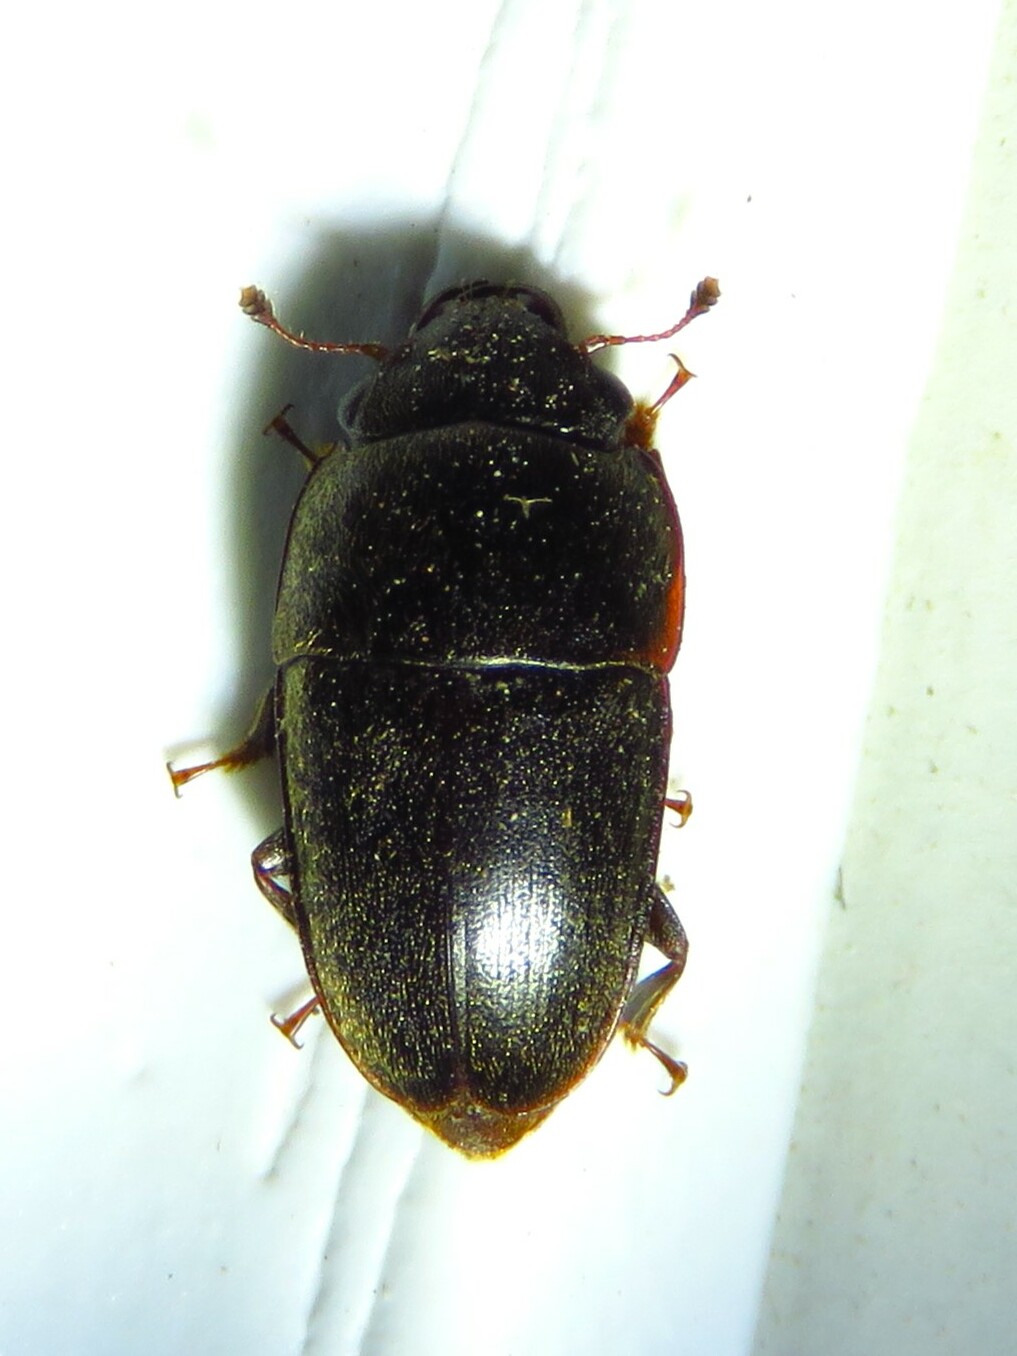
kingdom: Animalia
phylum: Arthropoda
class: Insecta
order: Coleoptera
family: Nitidulidae
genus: Cryptarcha
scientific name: Cryptarcha ampla
